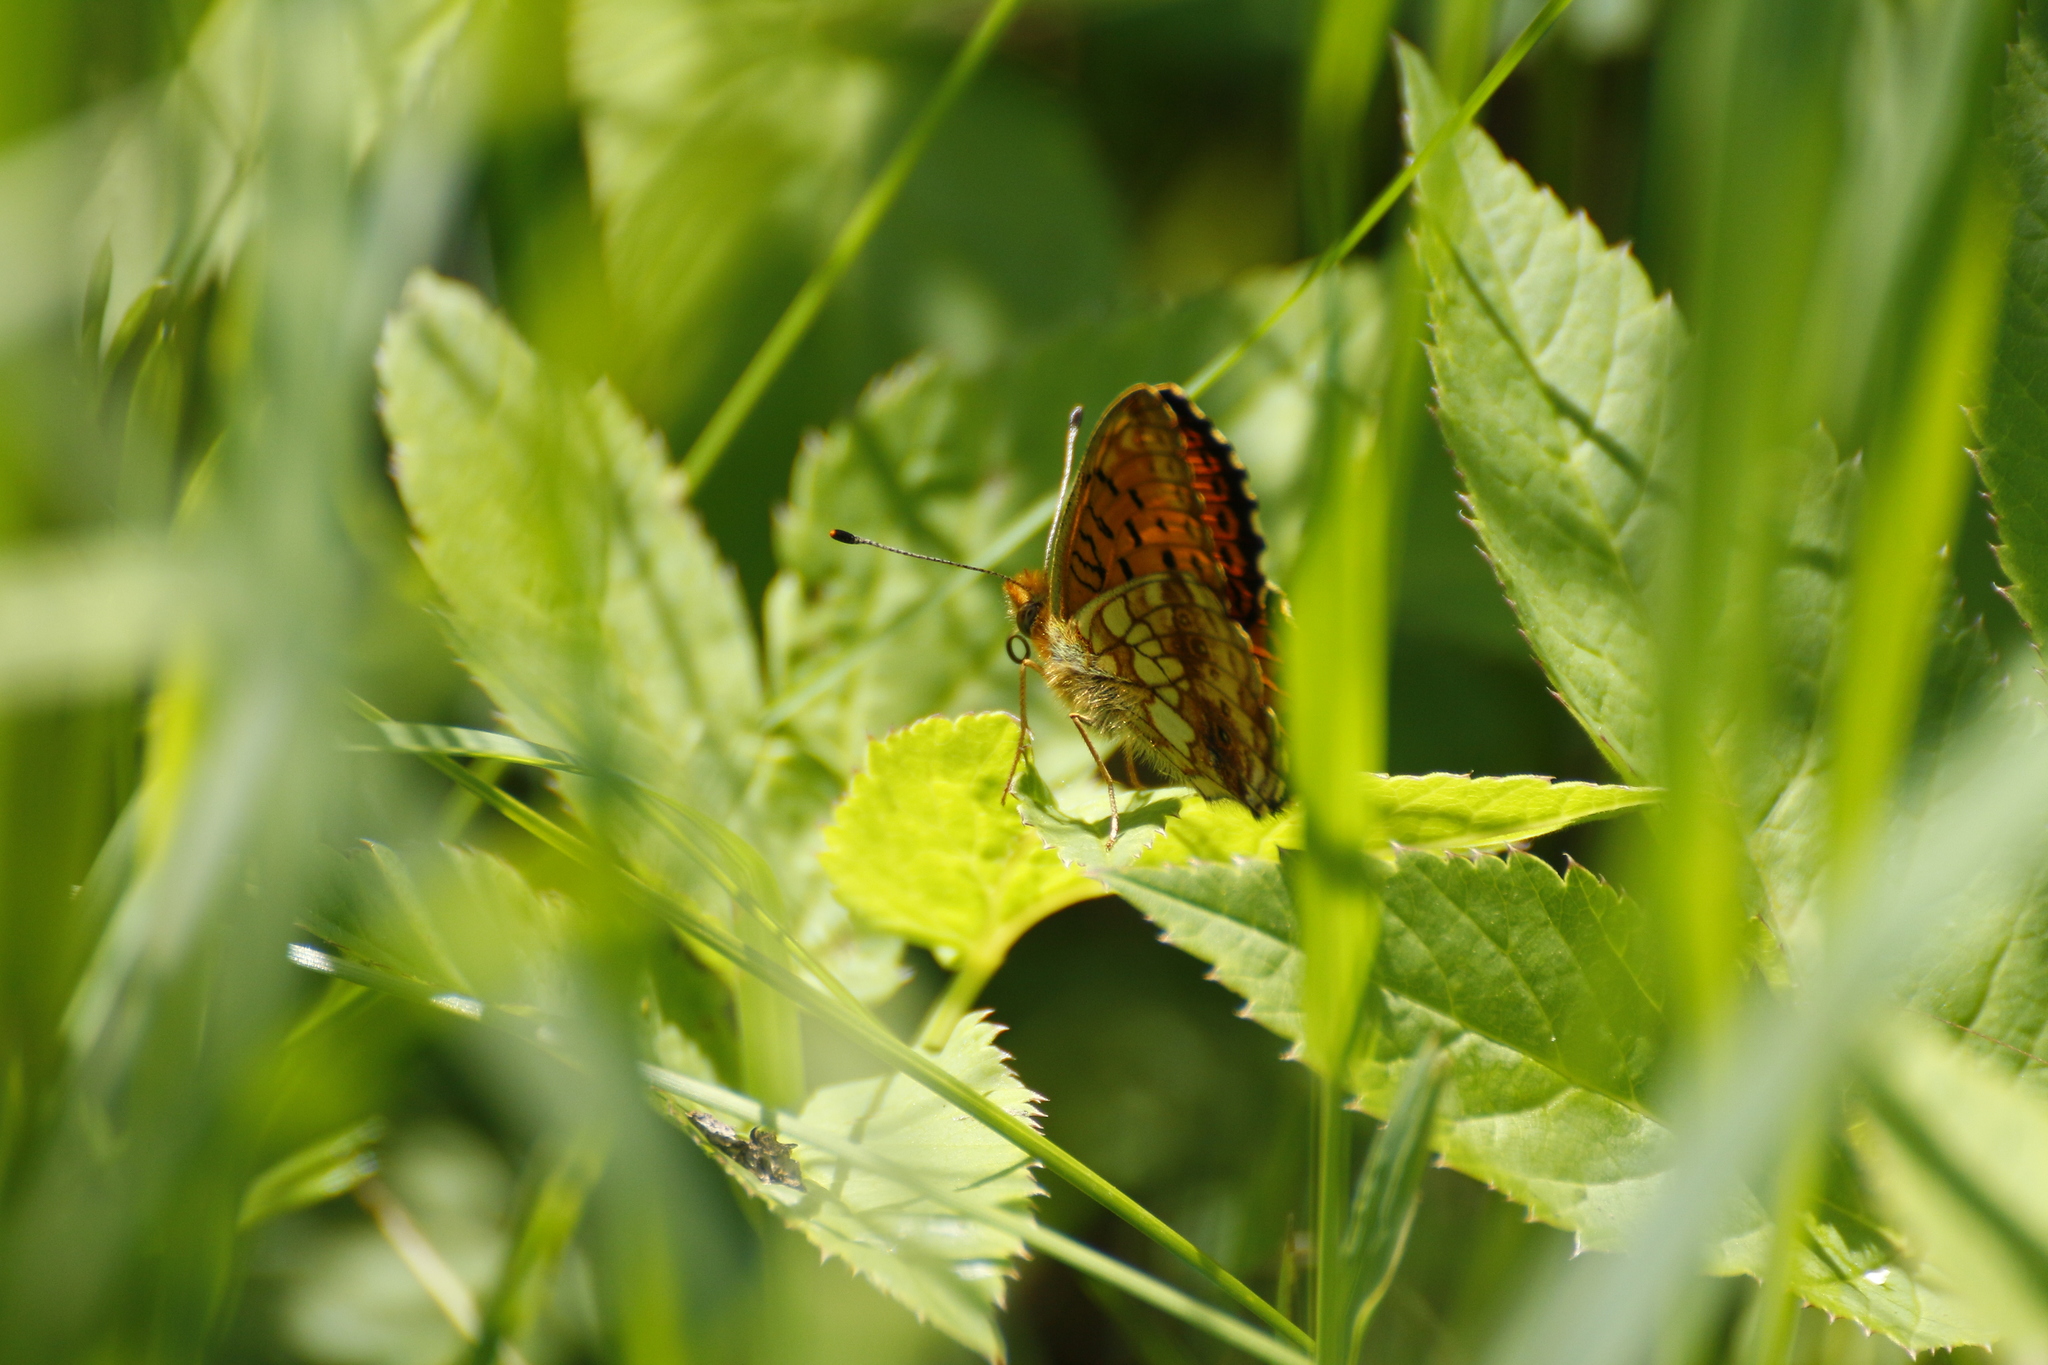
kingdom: Animalia
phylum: Arthropoda
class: Insecta
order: Lepidoptera
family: Nymphalidae
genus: Brenthis
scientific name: Brenthis ino
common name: Lesser marbled fritillary
